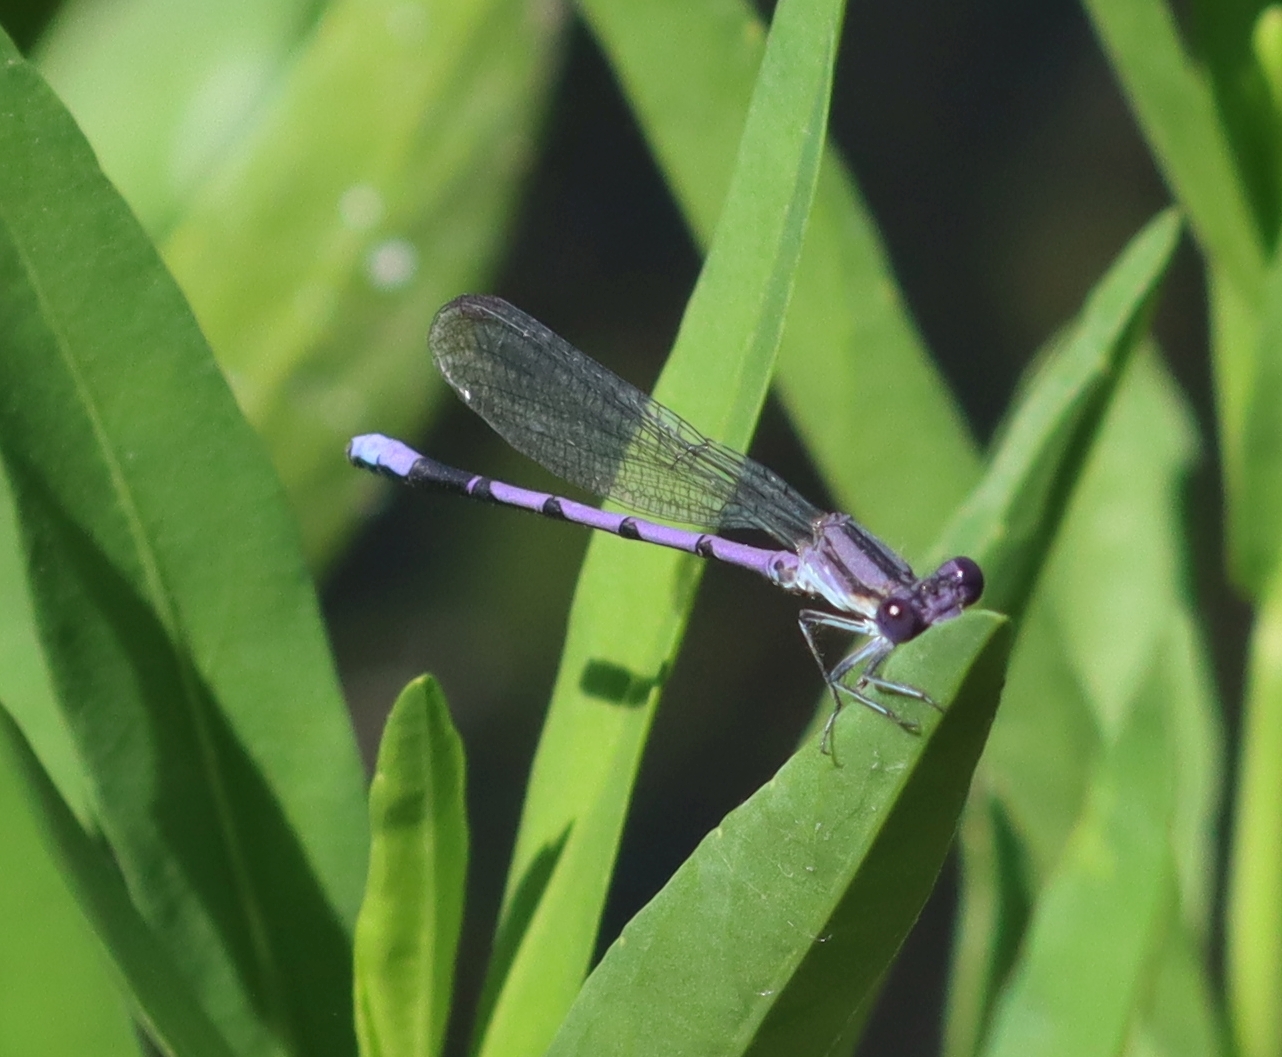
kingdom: Animalia
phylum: Arthropoda
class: Insecta
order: Odonata
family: Coenagrionidae
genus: Argia
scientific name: Argia fumipennis
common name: Variable dancer
